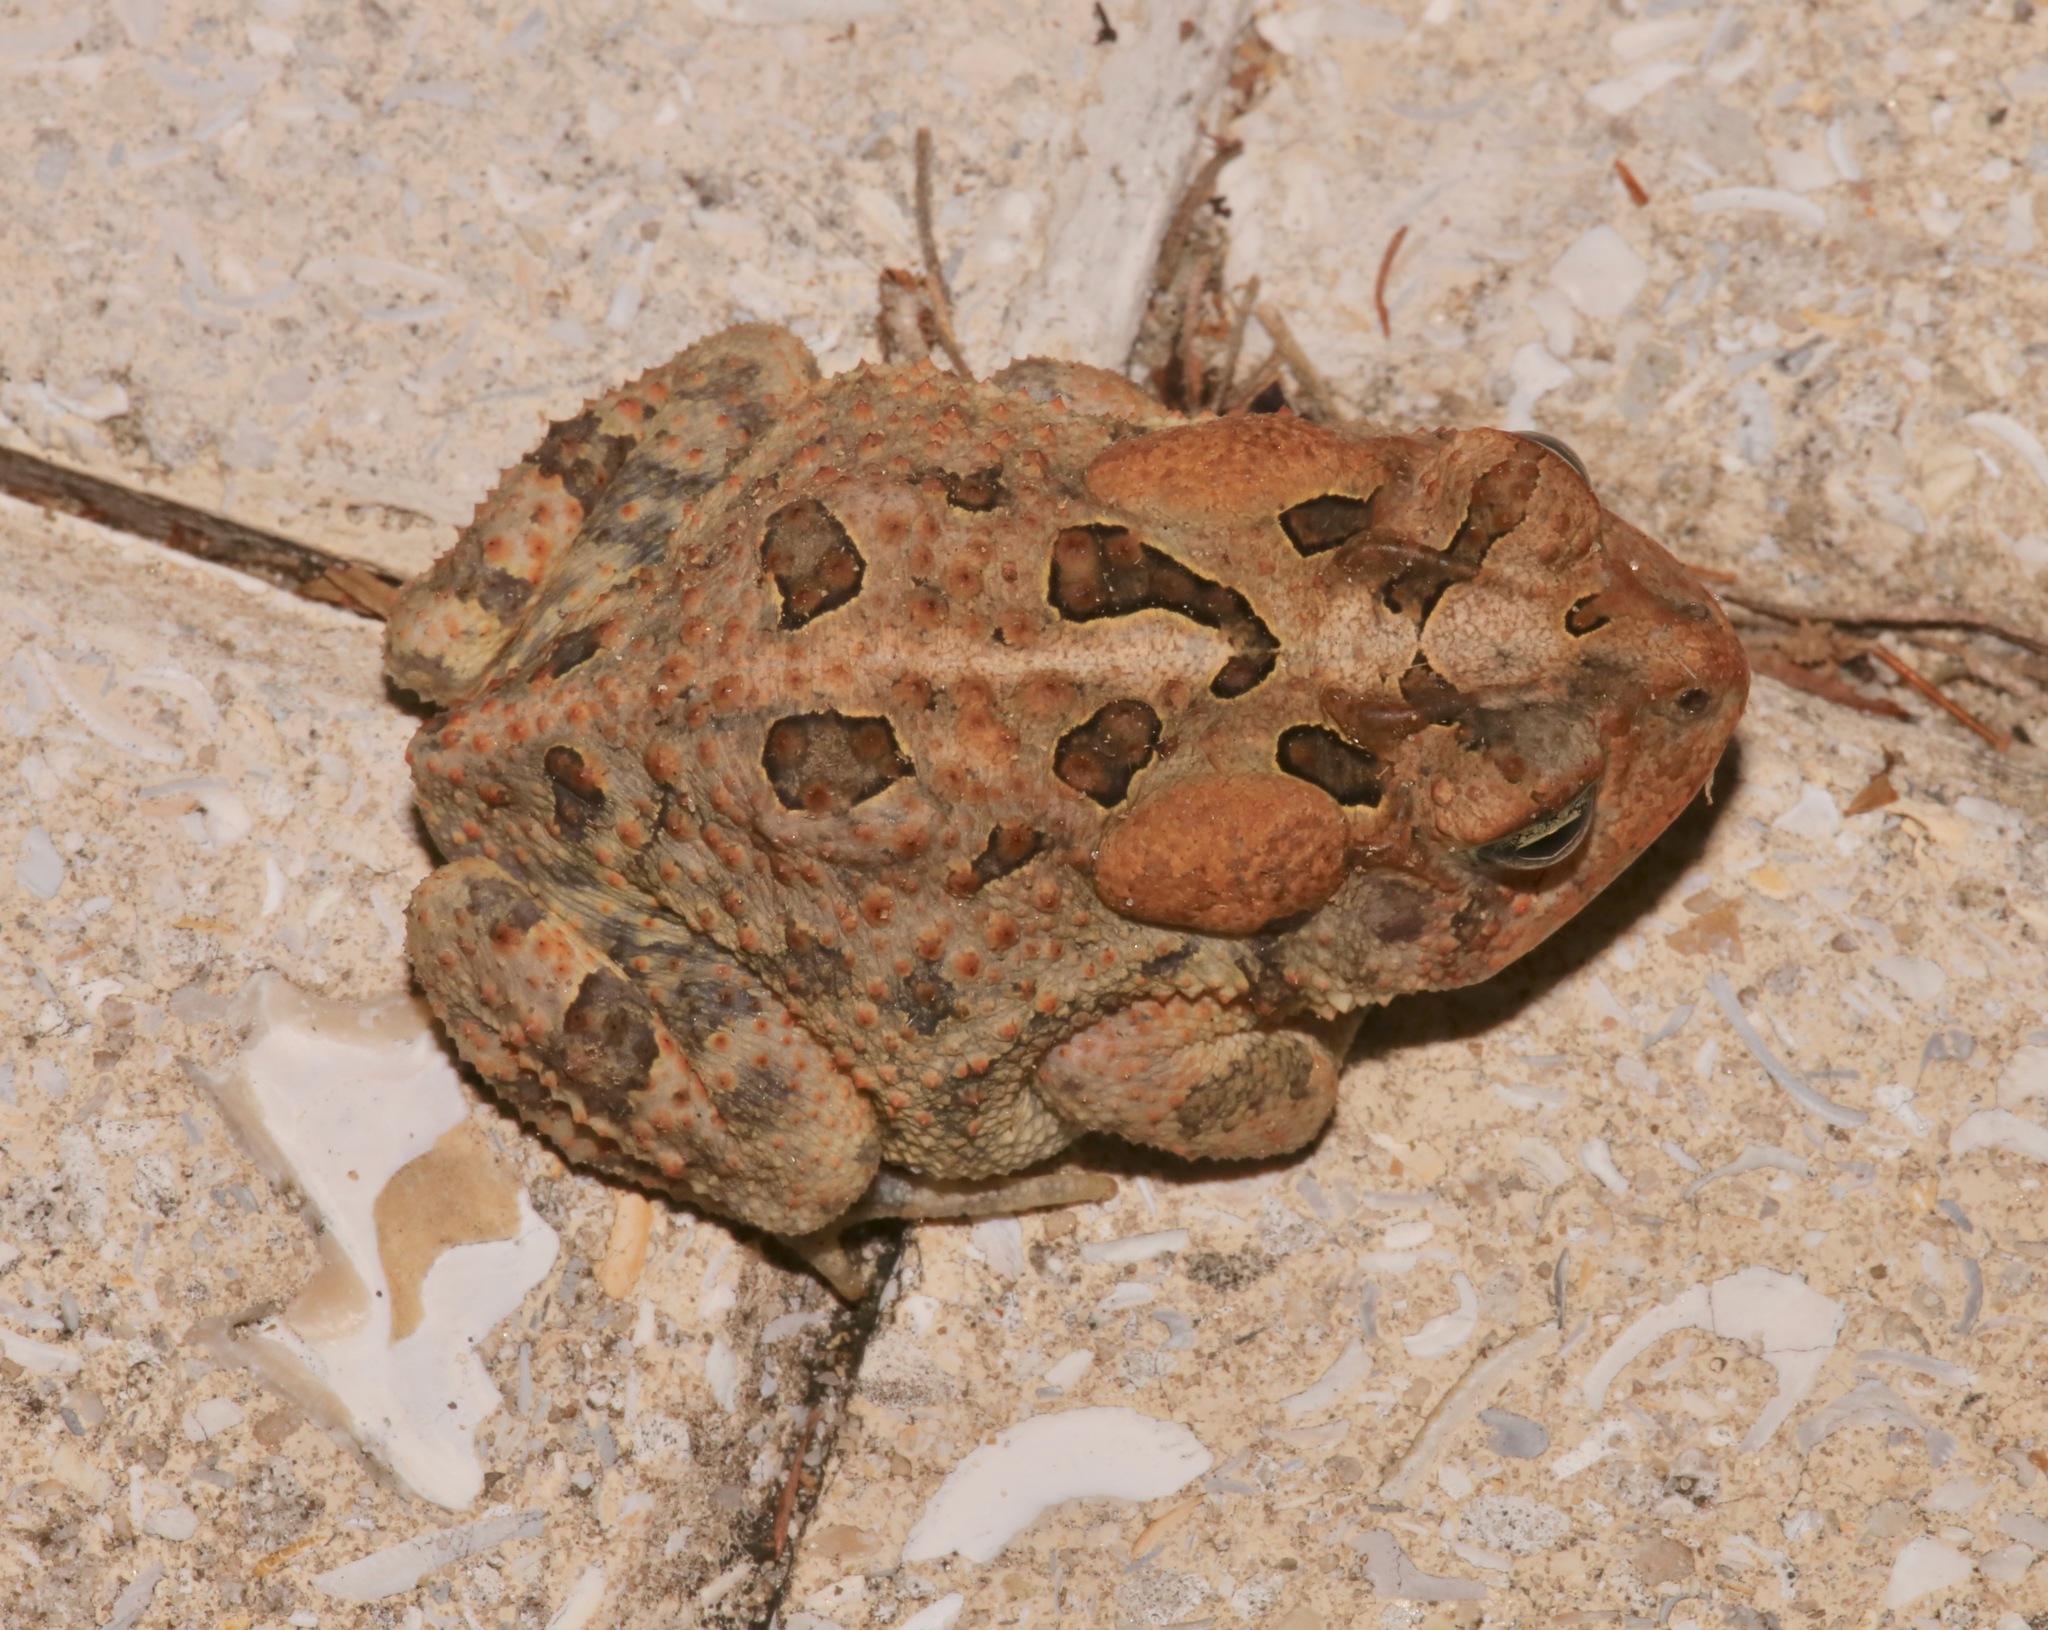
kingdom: Animalia
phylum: Chordata
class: Amphibia
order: Anura
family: Bufonidae
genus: Anaxyrus
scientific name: Anaxyrus terrestris
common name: Southern toad
